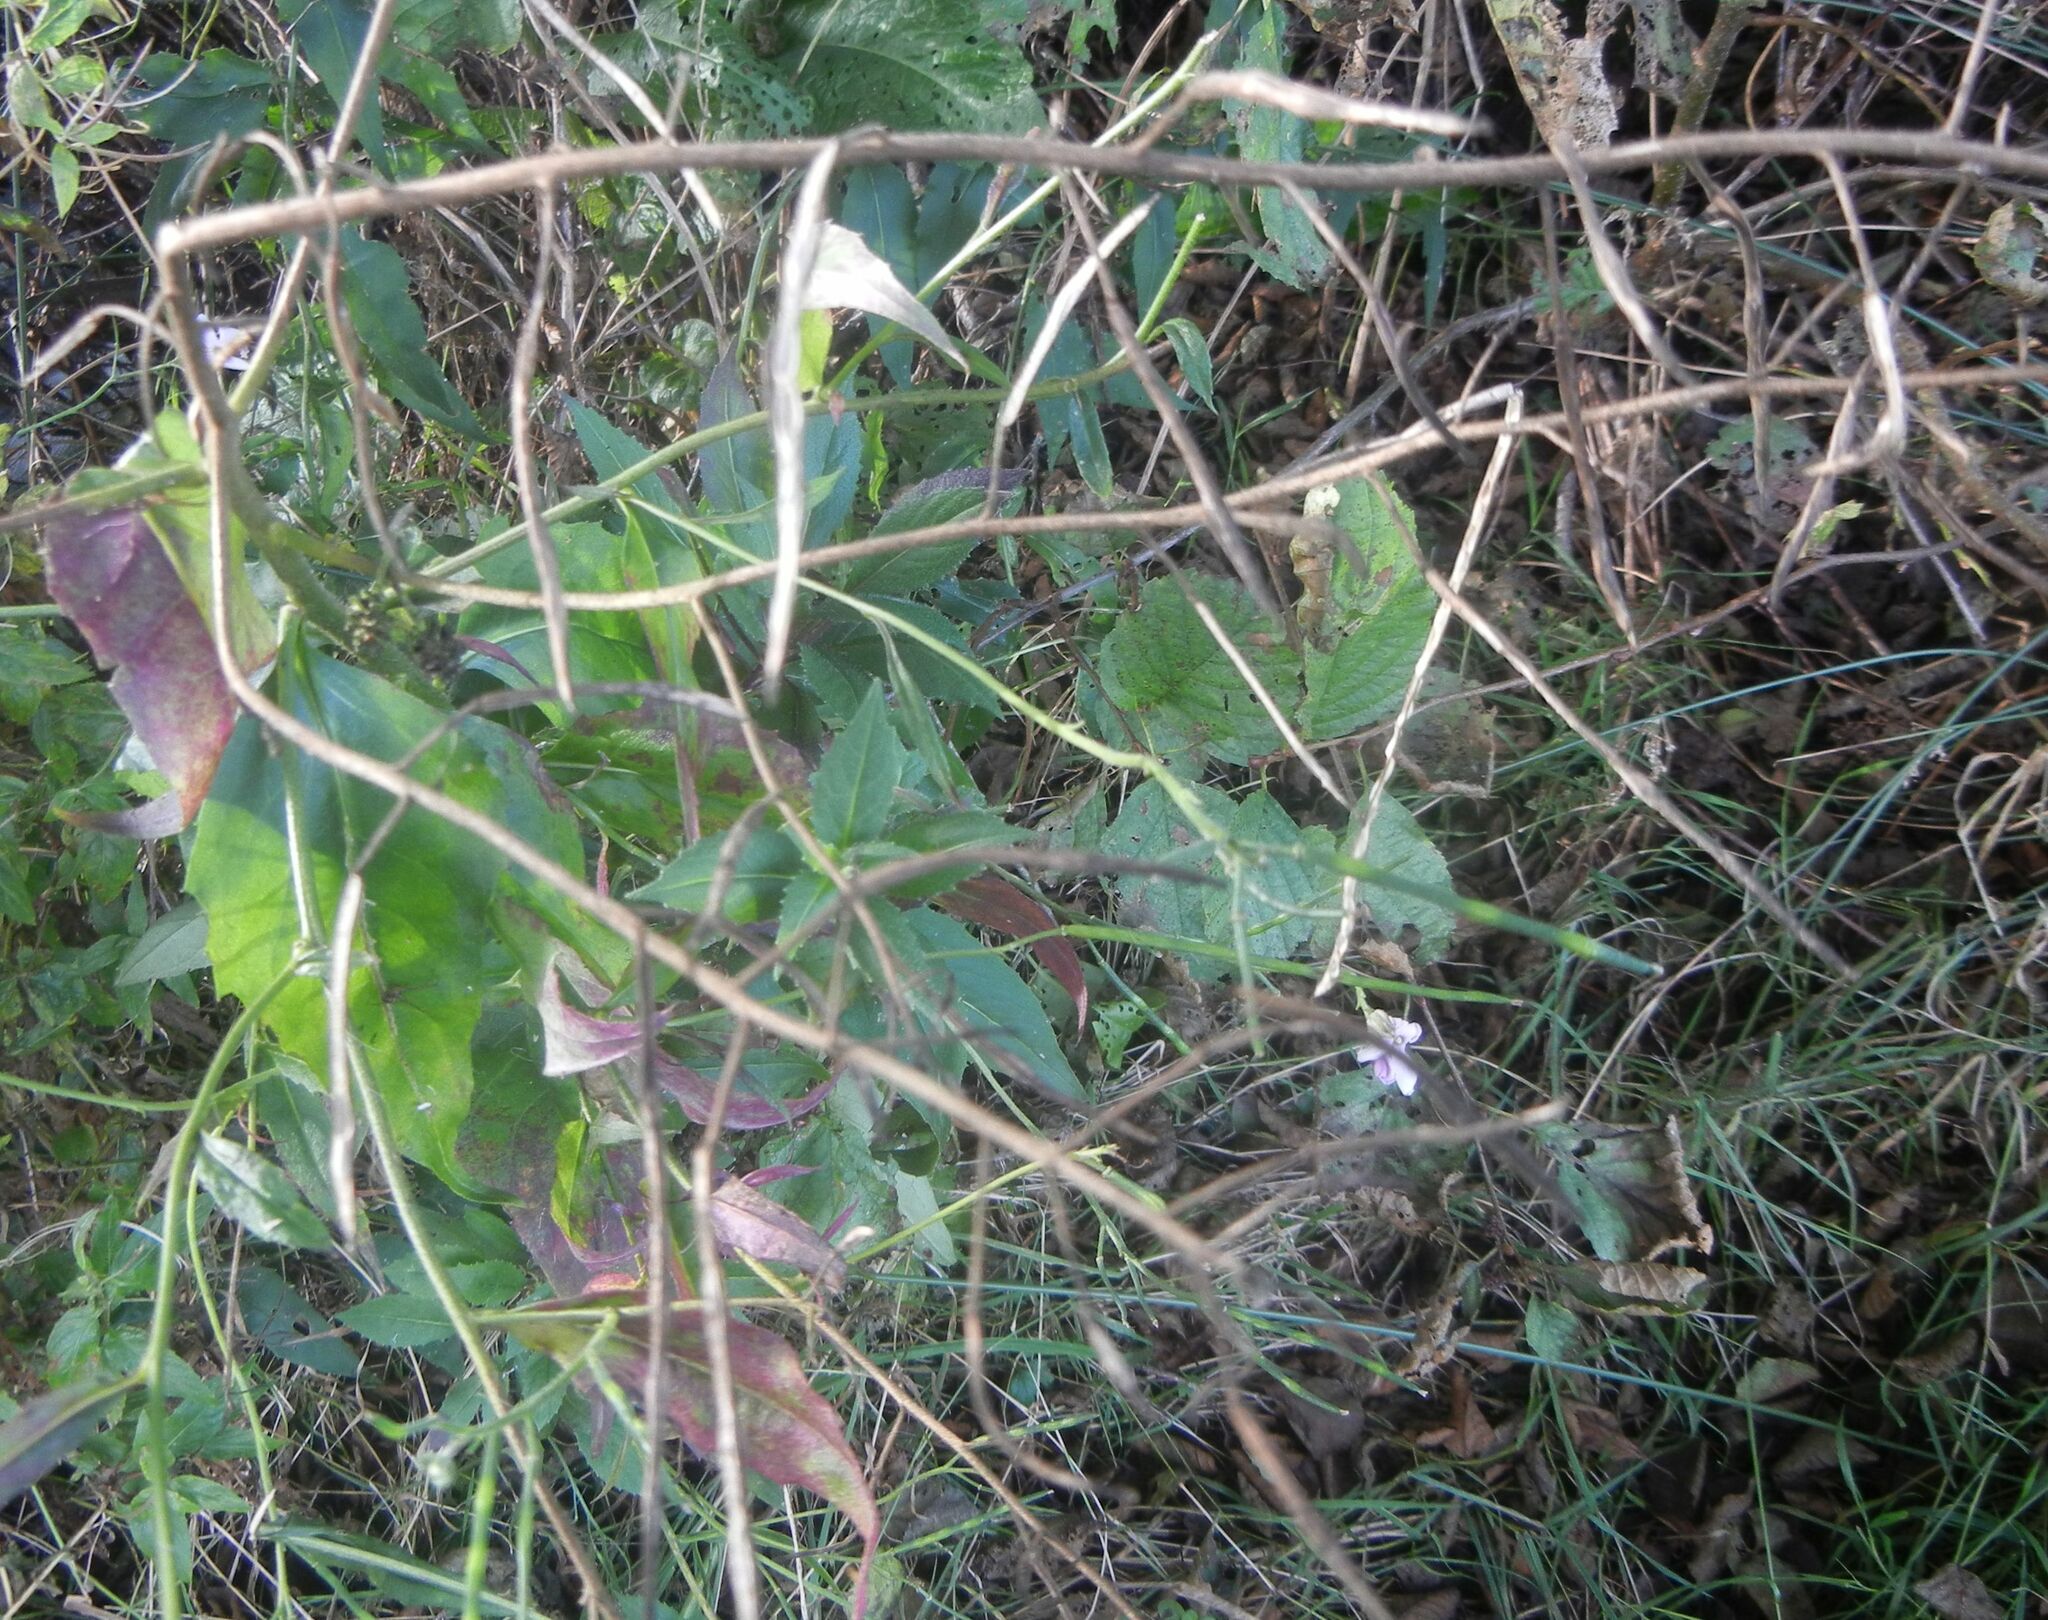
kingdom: Plantae
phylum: Tracheophyta
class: Magnoliopsida
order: Brassicales
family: Brassicaceae
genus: Hesperis
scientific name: Hesperis matronalis
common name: Dame's-violet
